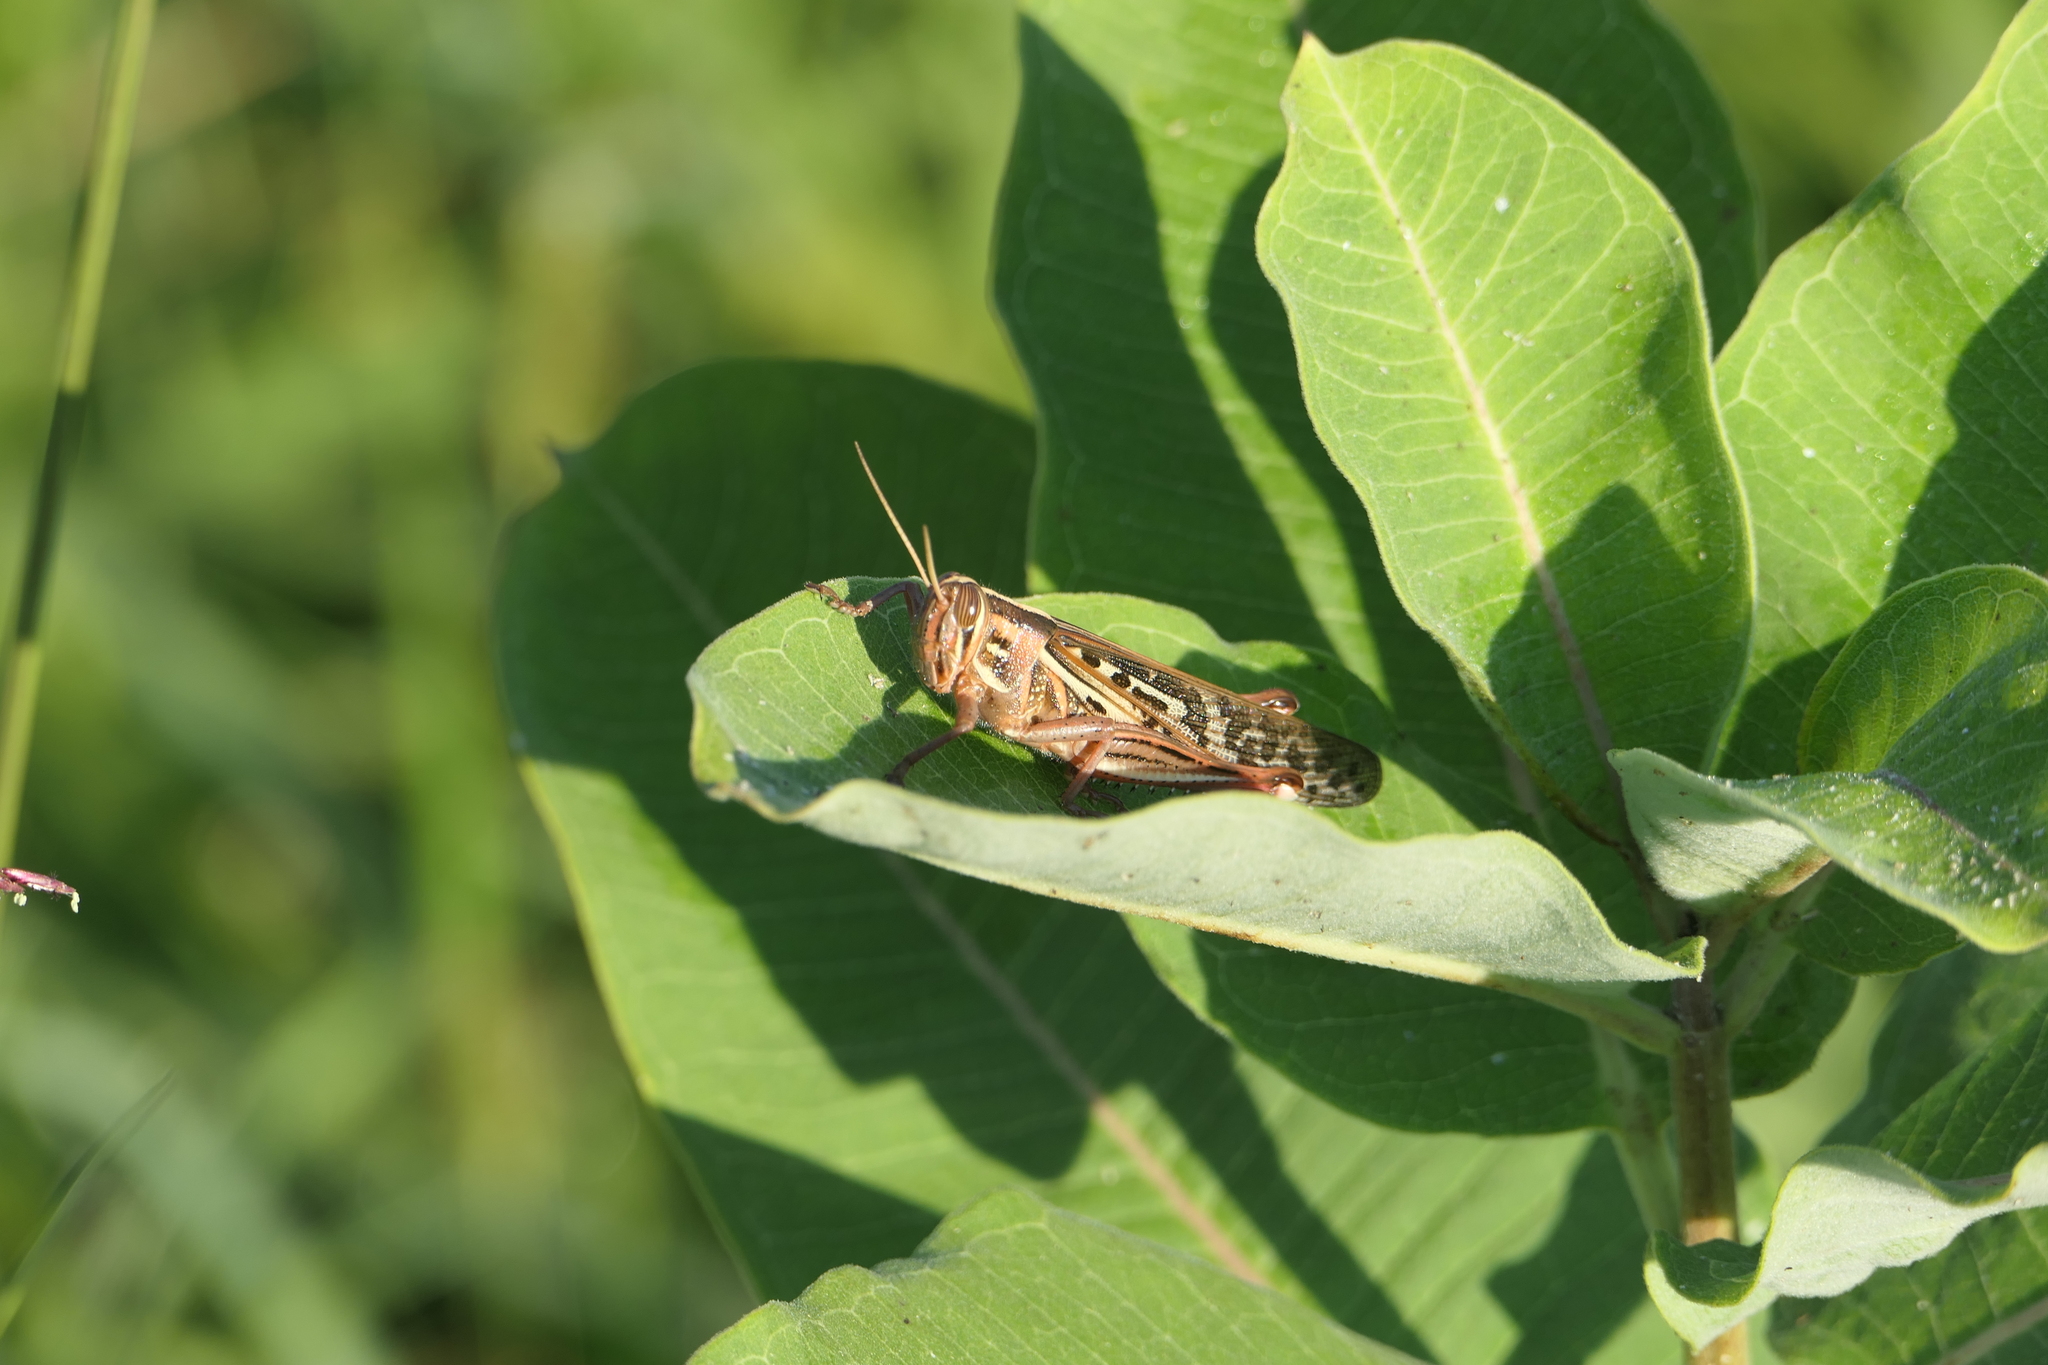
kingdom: Animalia
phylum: Arthropoda
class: Insecta
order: Orthoptera
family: Acrididae
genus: Schistocerca
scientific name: Schistocerca americana
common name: American bird locust
